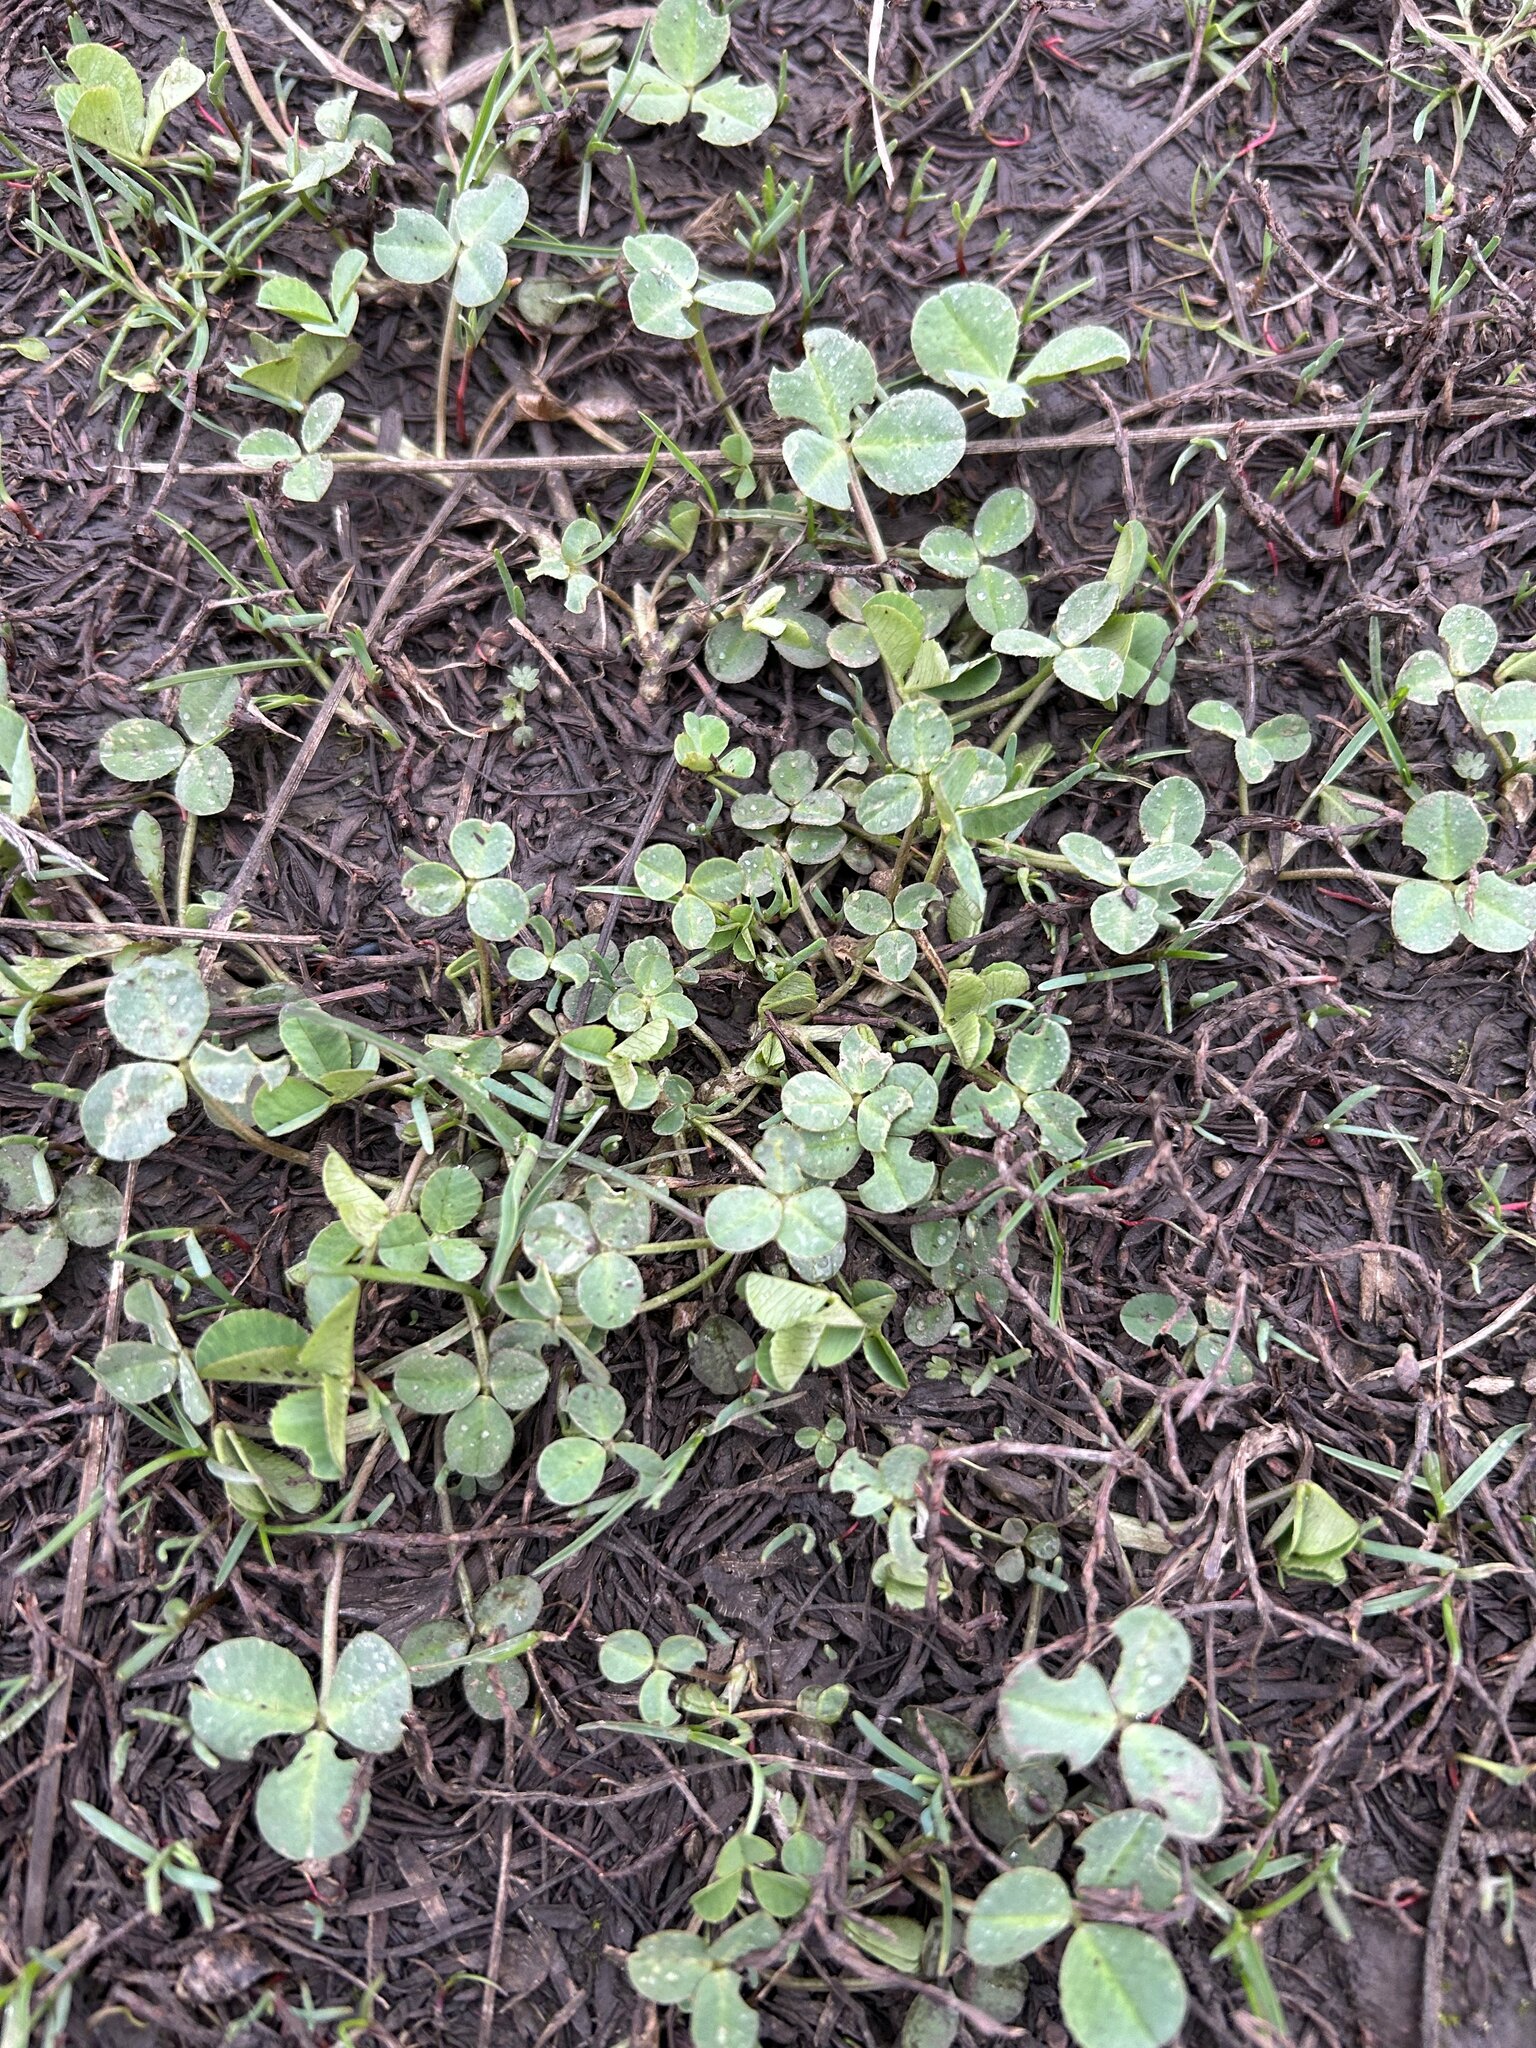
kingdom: Plantae
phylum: Tracheophyta
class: Magnoliopsida
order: Fabales
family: Fabaceae
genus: Trifolium
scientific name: Trifolium repens
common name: White clover
